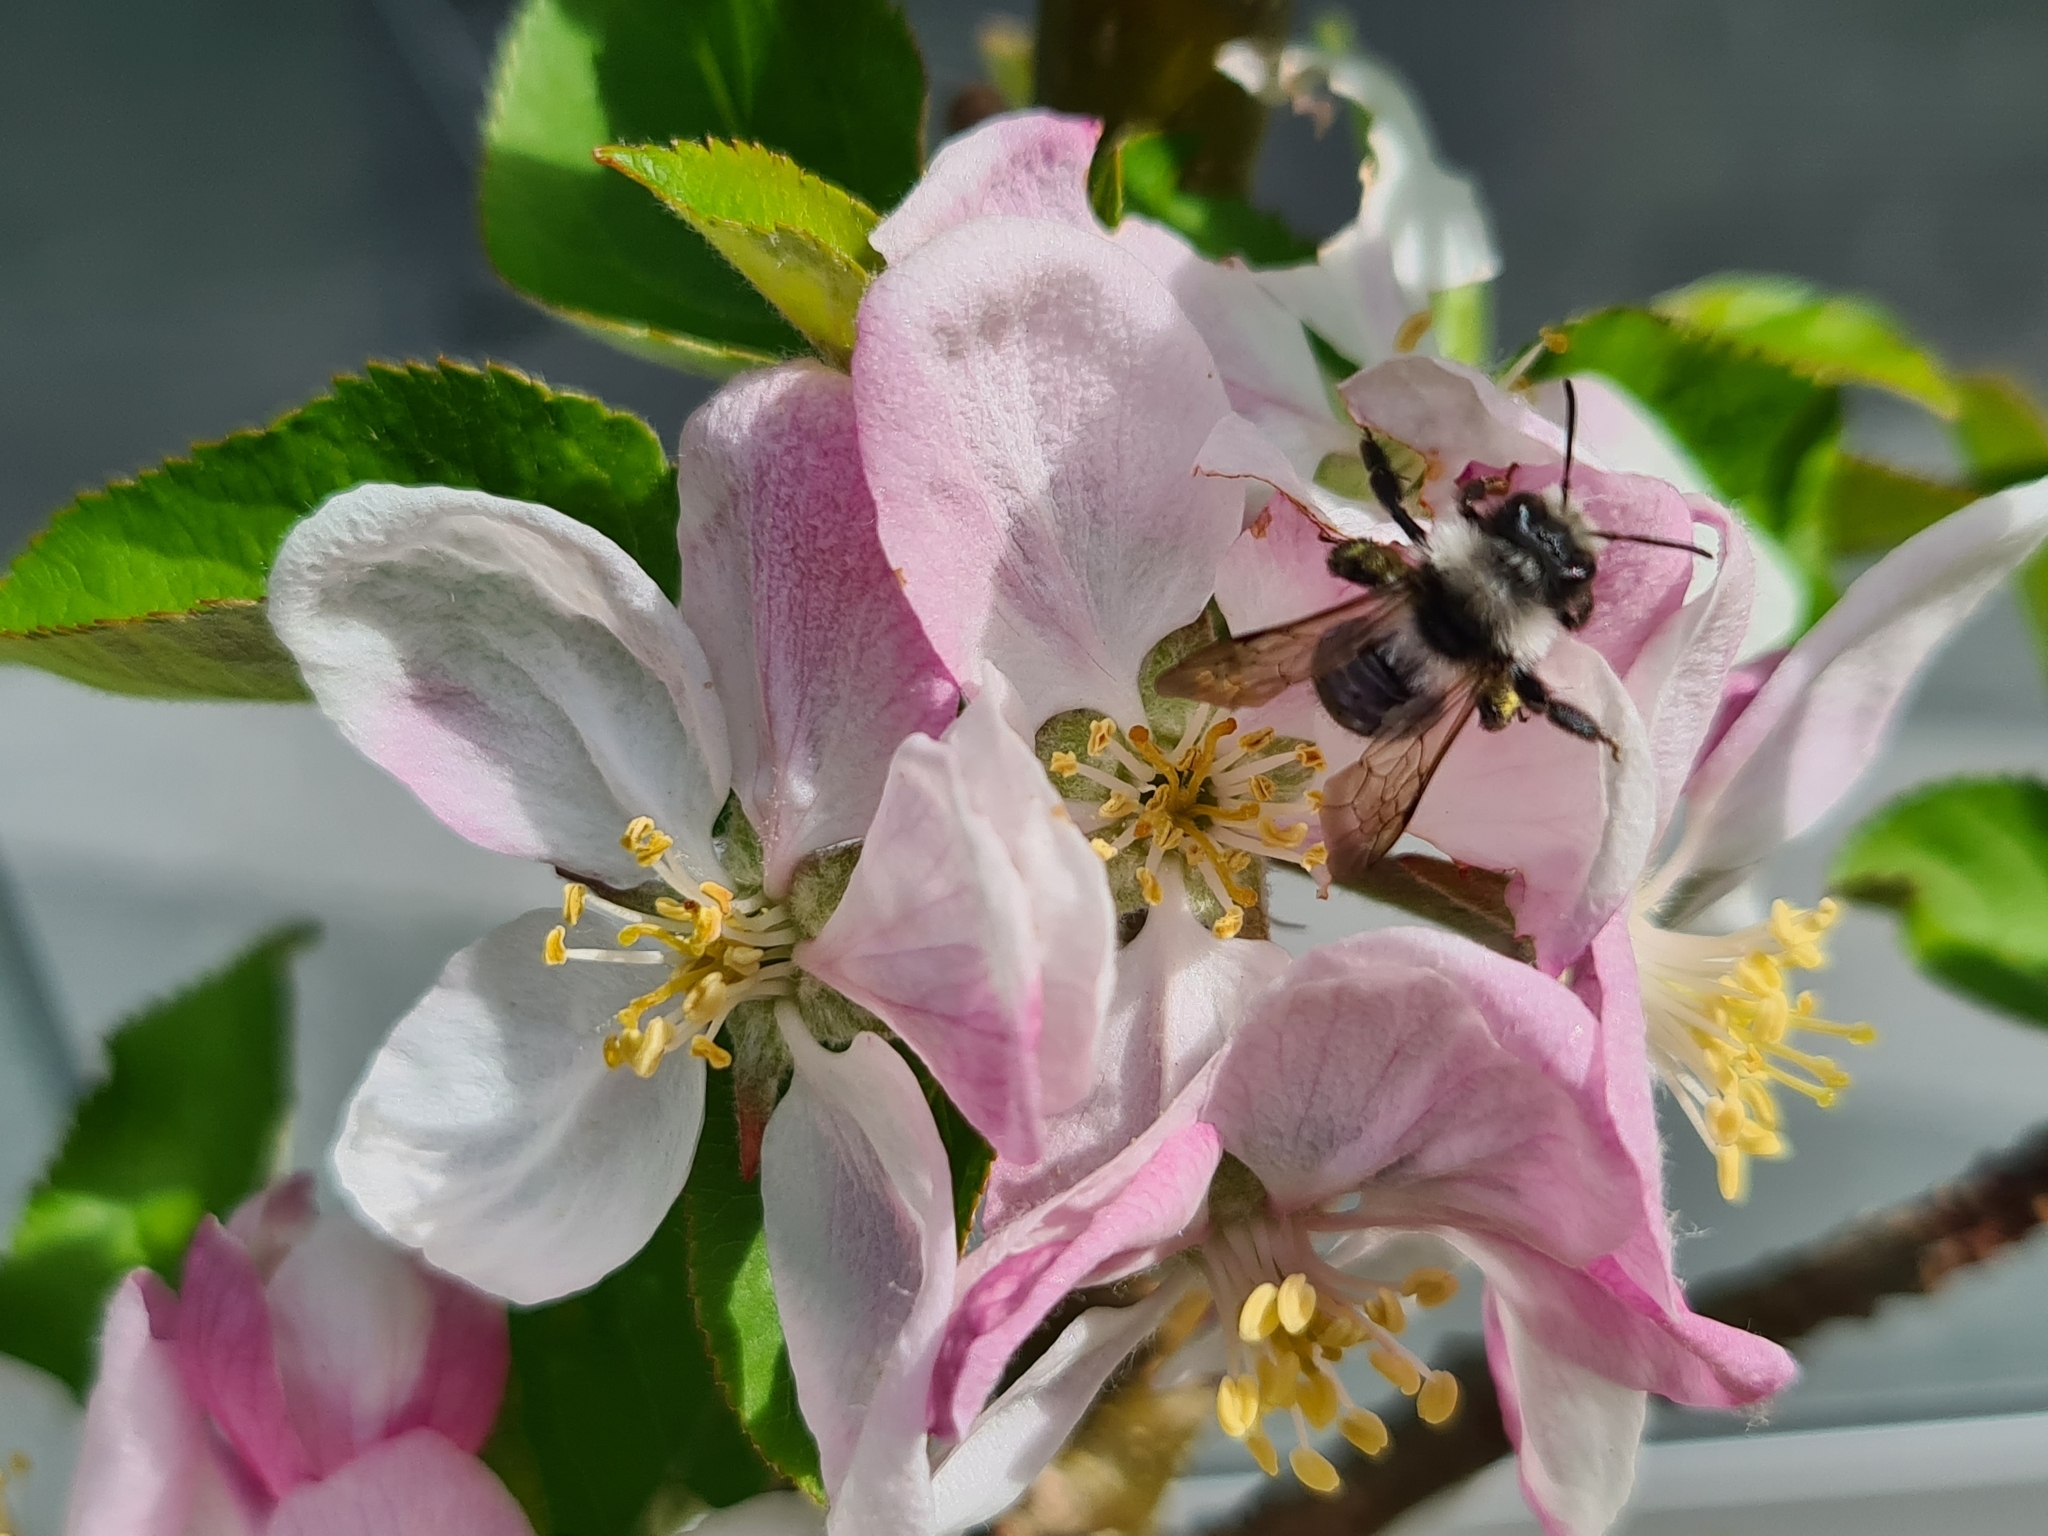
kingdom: Animalia
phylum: Arthropoda
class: Insecta
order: Hymenoptera
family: Andrenidae
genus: Andrena
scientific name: Andrena cineraria
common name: Ashy mining bee
